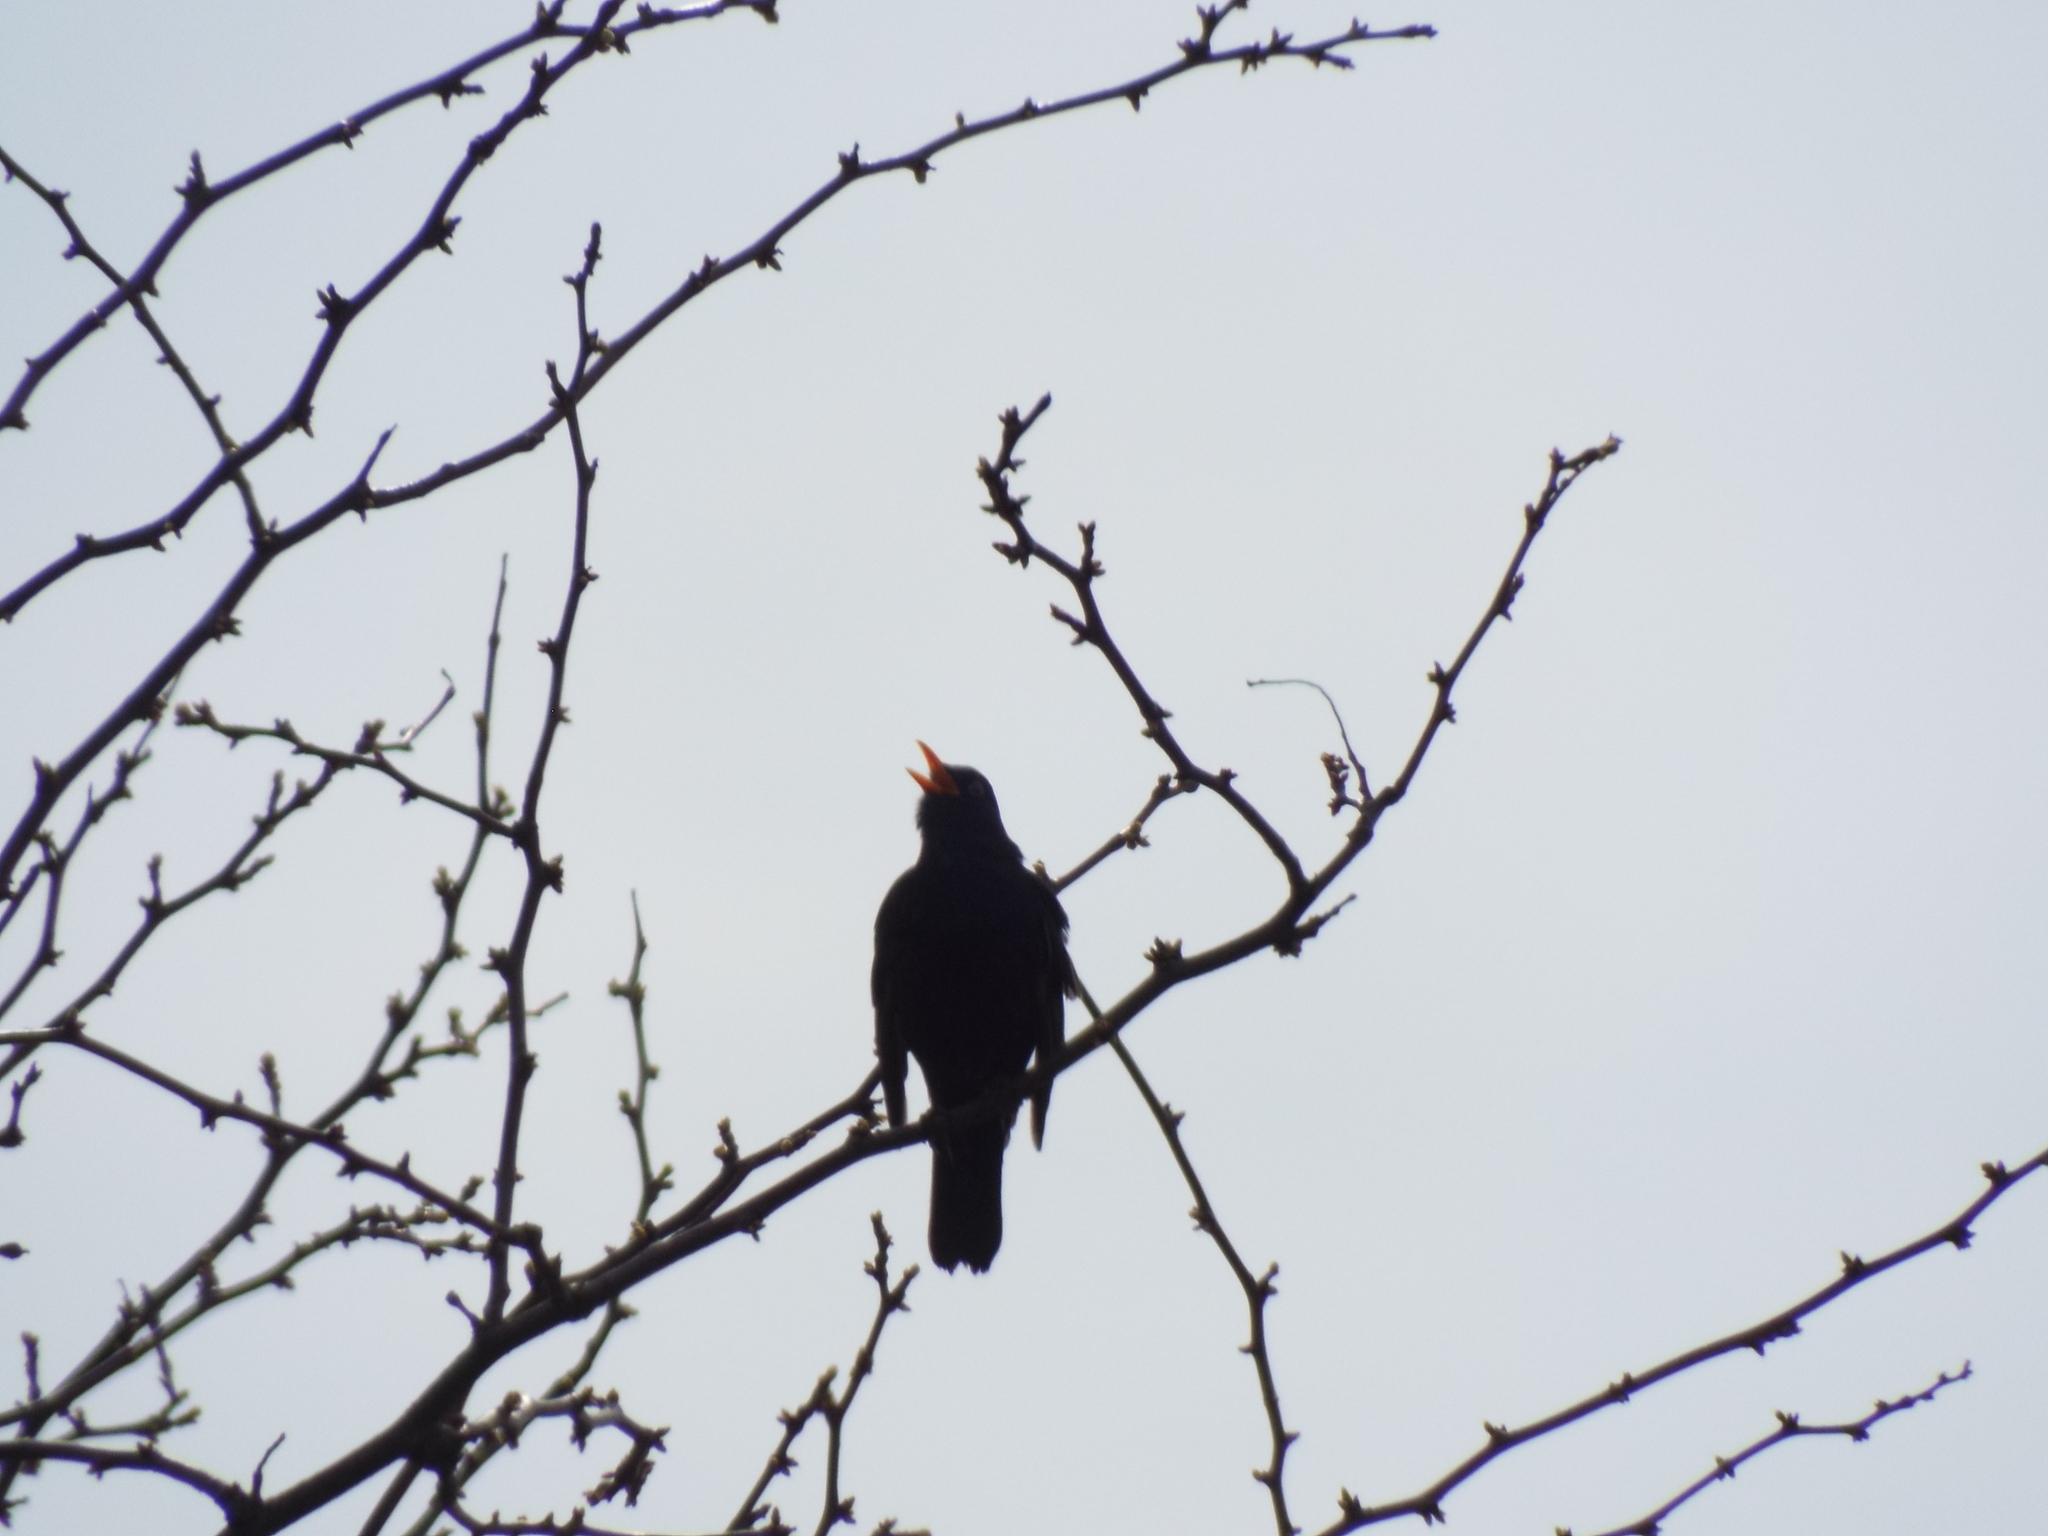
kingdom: Animalia
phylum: Chordata
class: Aves
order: Passeriformes
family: Turdidae
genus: Turdus
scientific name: Turdus merula
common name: Common blackbird
